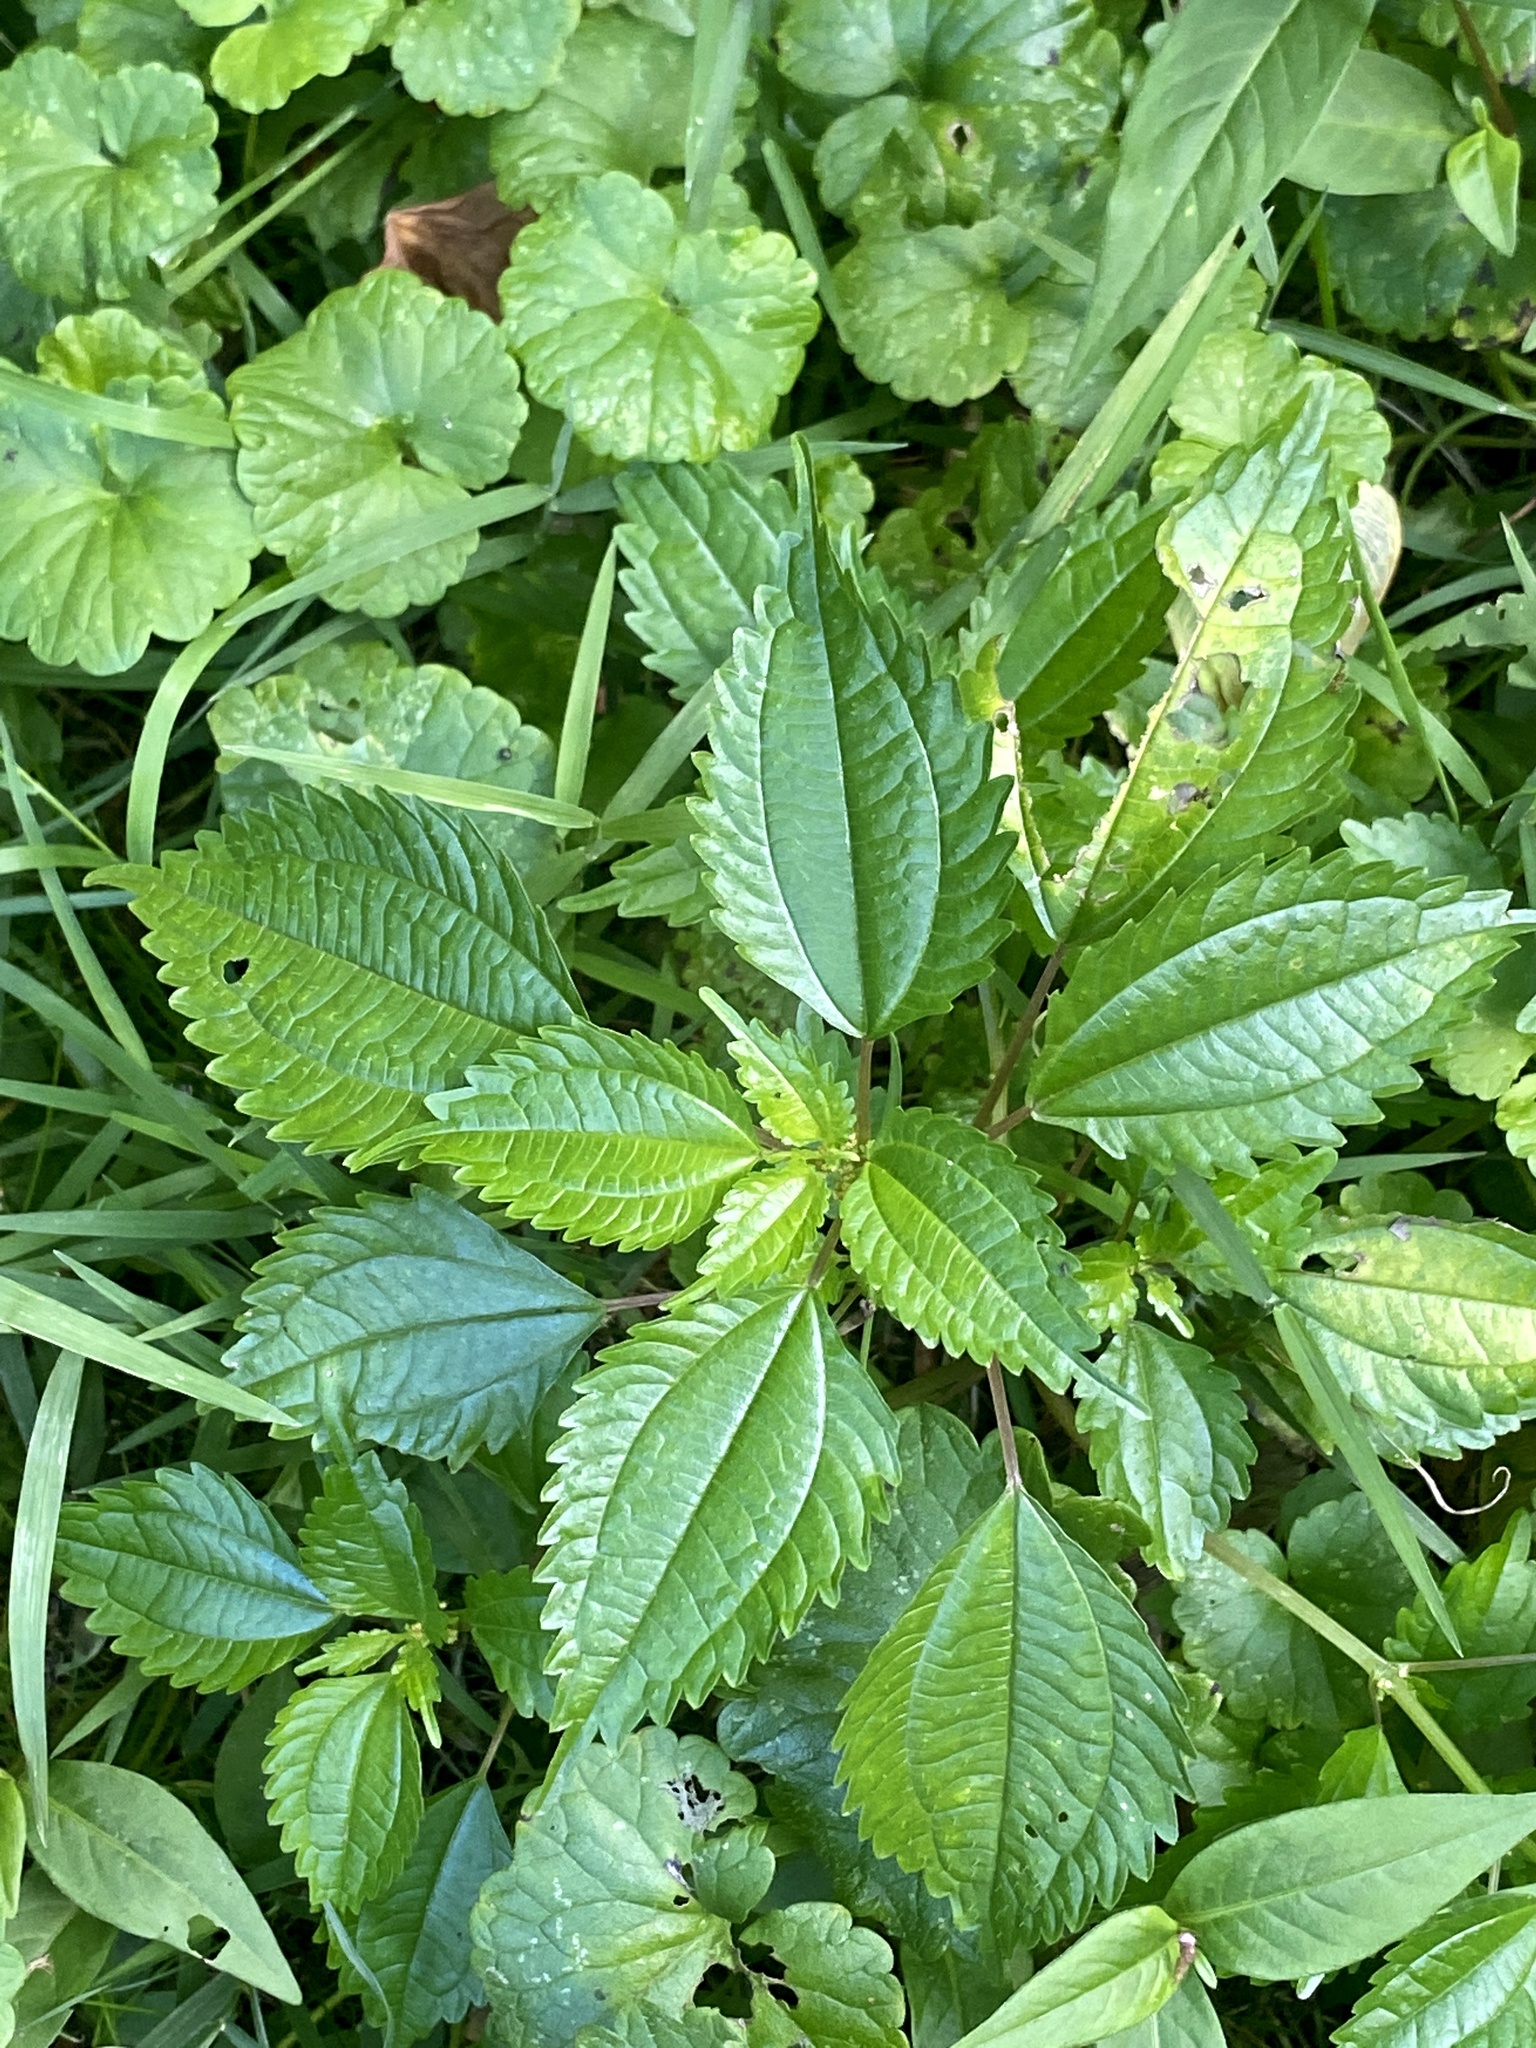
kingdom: Plantae
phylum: Tracheophyta
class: Magnoliopsida
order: Rosales
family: Urticaceae
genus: Pilea
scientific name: Pilea pumila
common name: Clearweed
